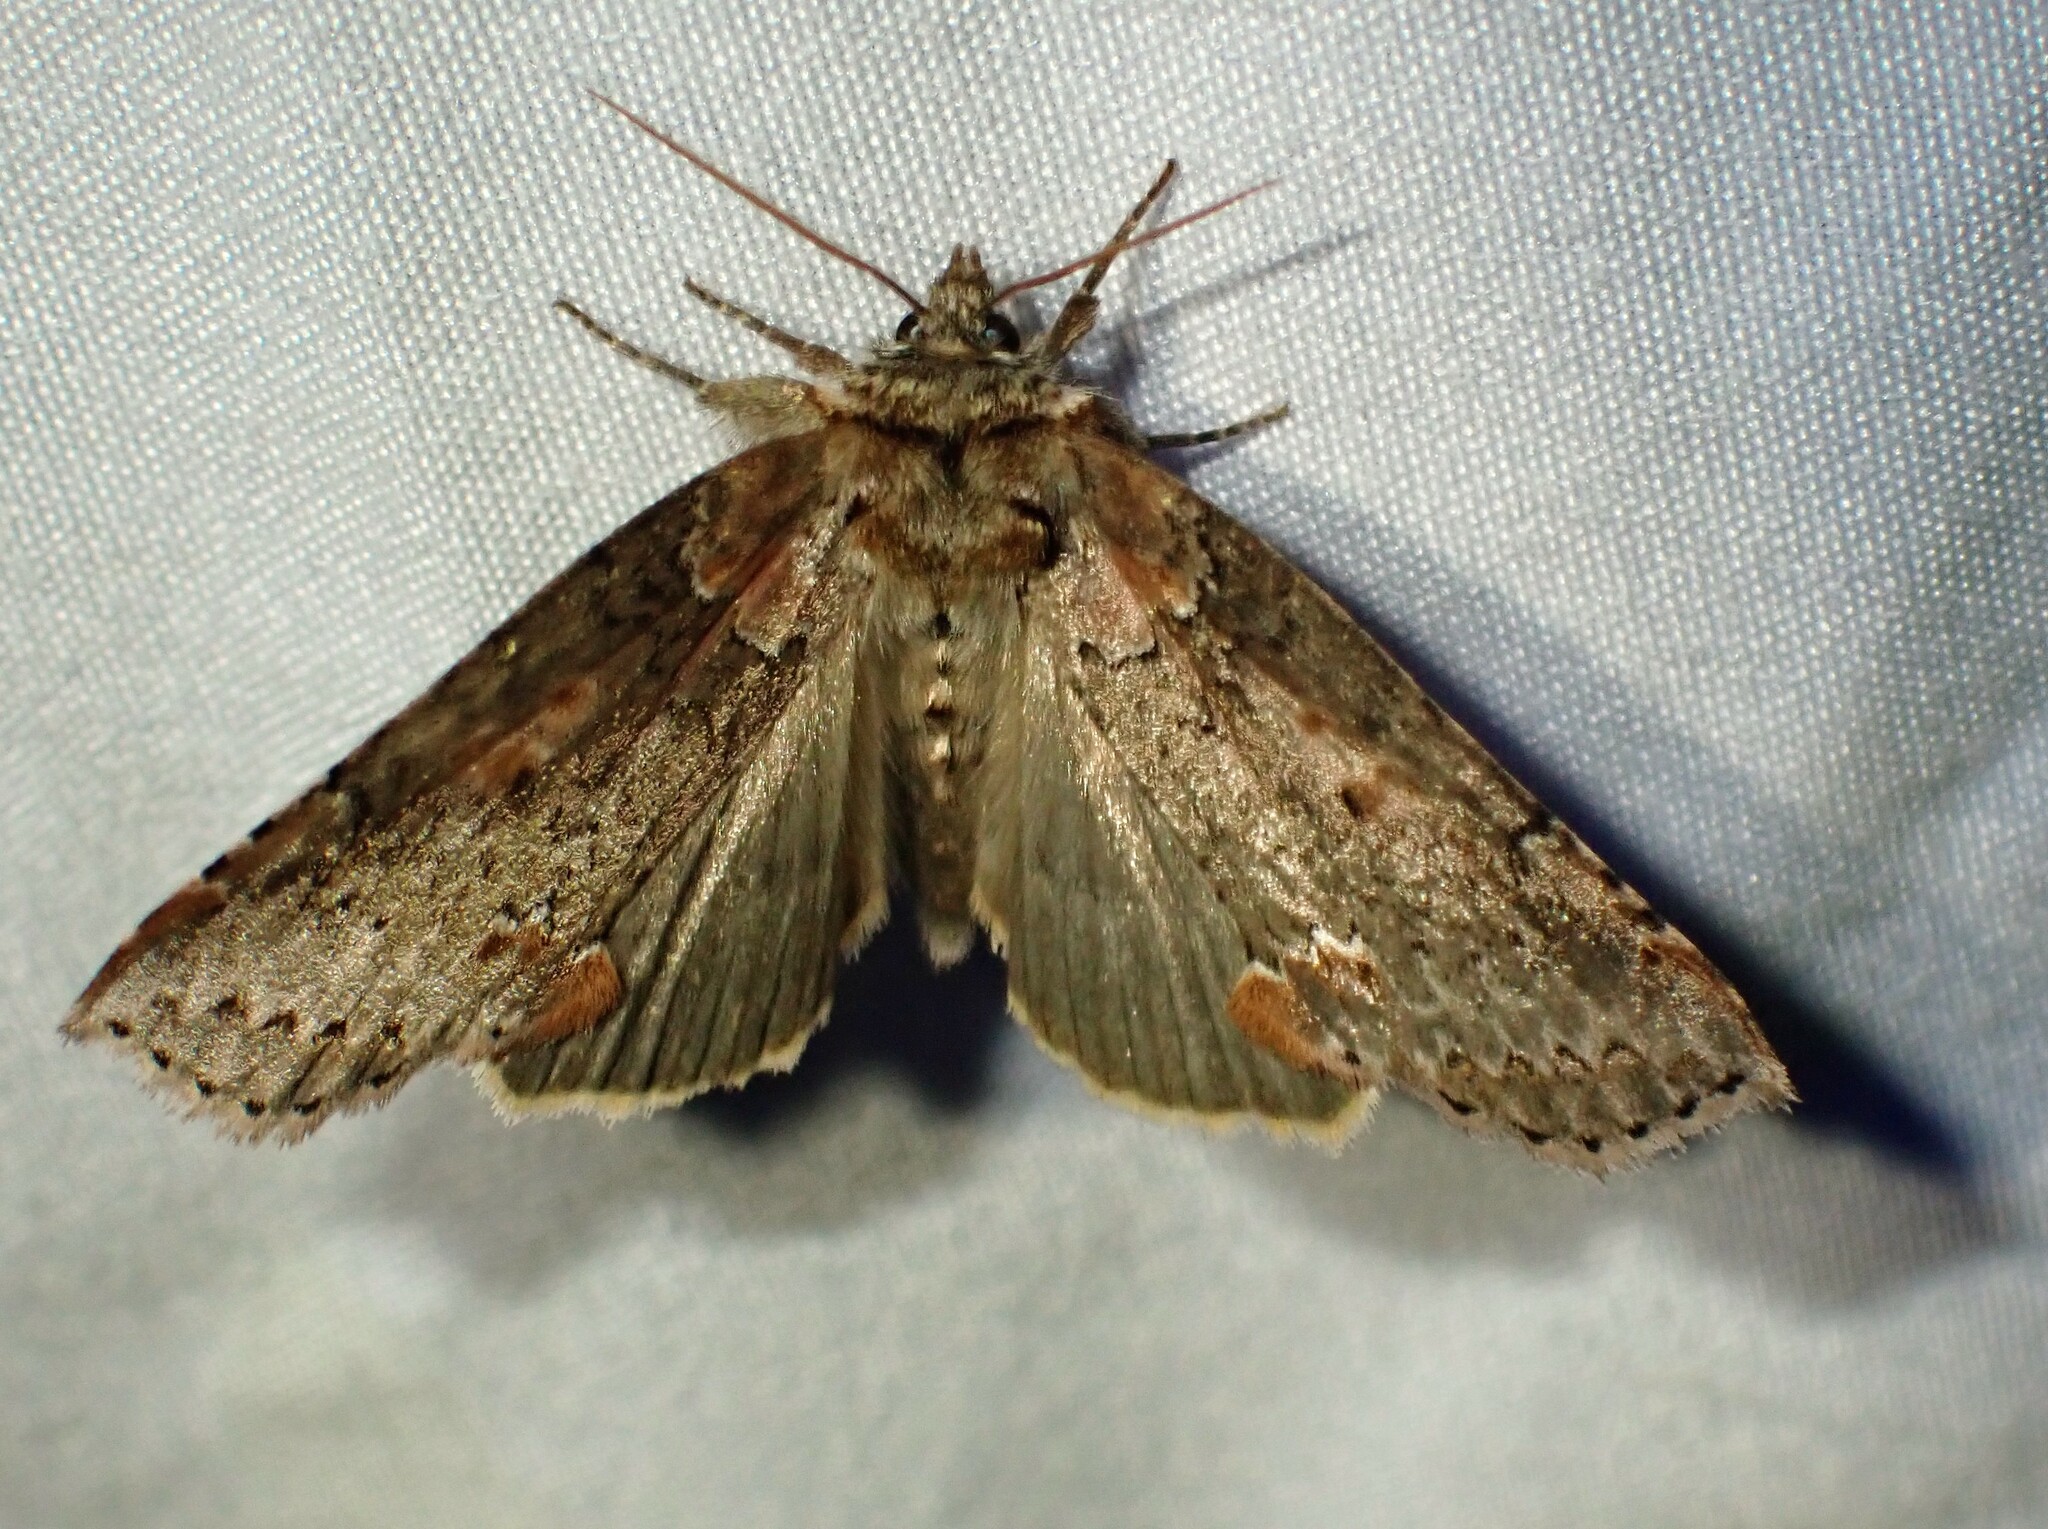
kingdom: Animalia
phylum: Arthropoda
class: Insecta
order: Lepidoptera
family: Drepanidae
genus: Pseudothyatira
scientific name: Pseudothyatira cymatophoroides
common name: Tufted thyatirid moth
